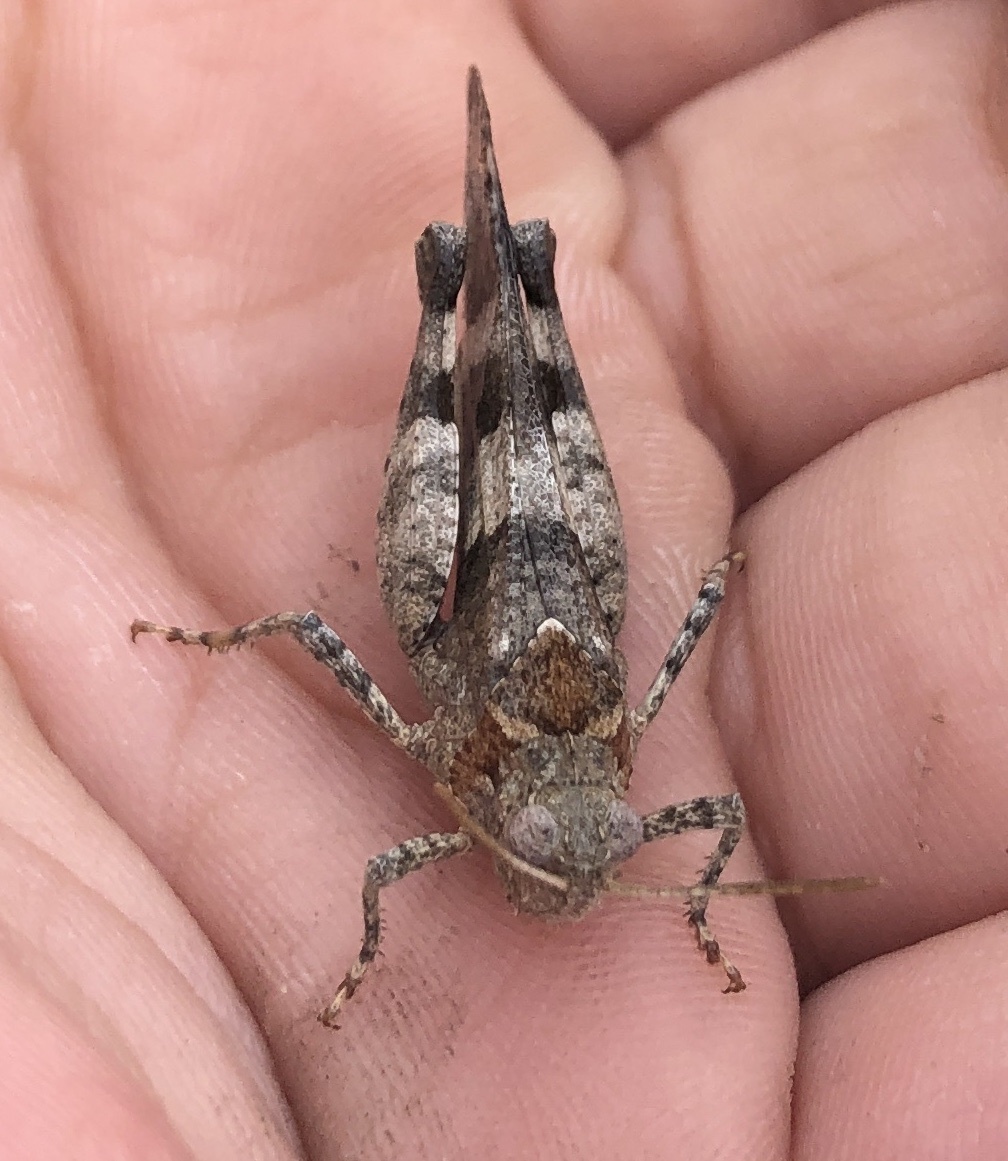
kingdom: Animalia
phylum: Arthropoda
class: Insecta
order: Orthoptera
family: Acrididae
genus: Oedipoda
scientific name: Oedipoda caerulescens
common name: Blue-winged grasshopper
